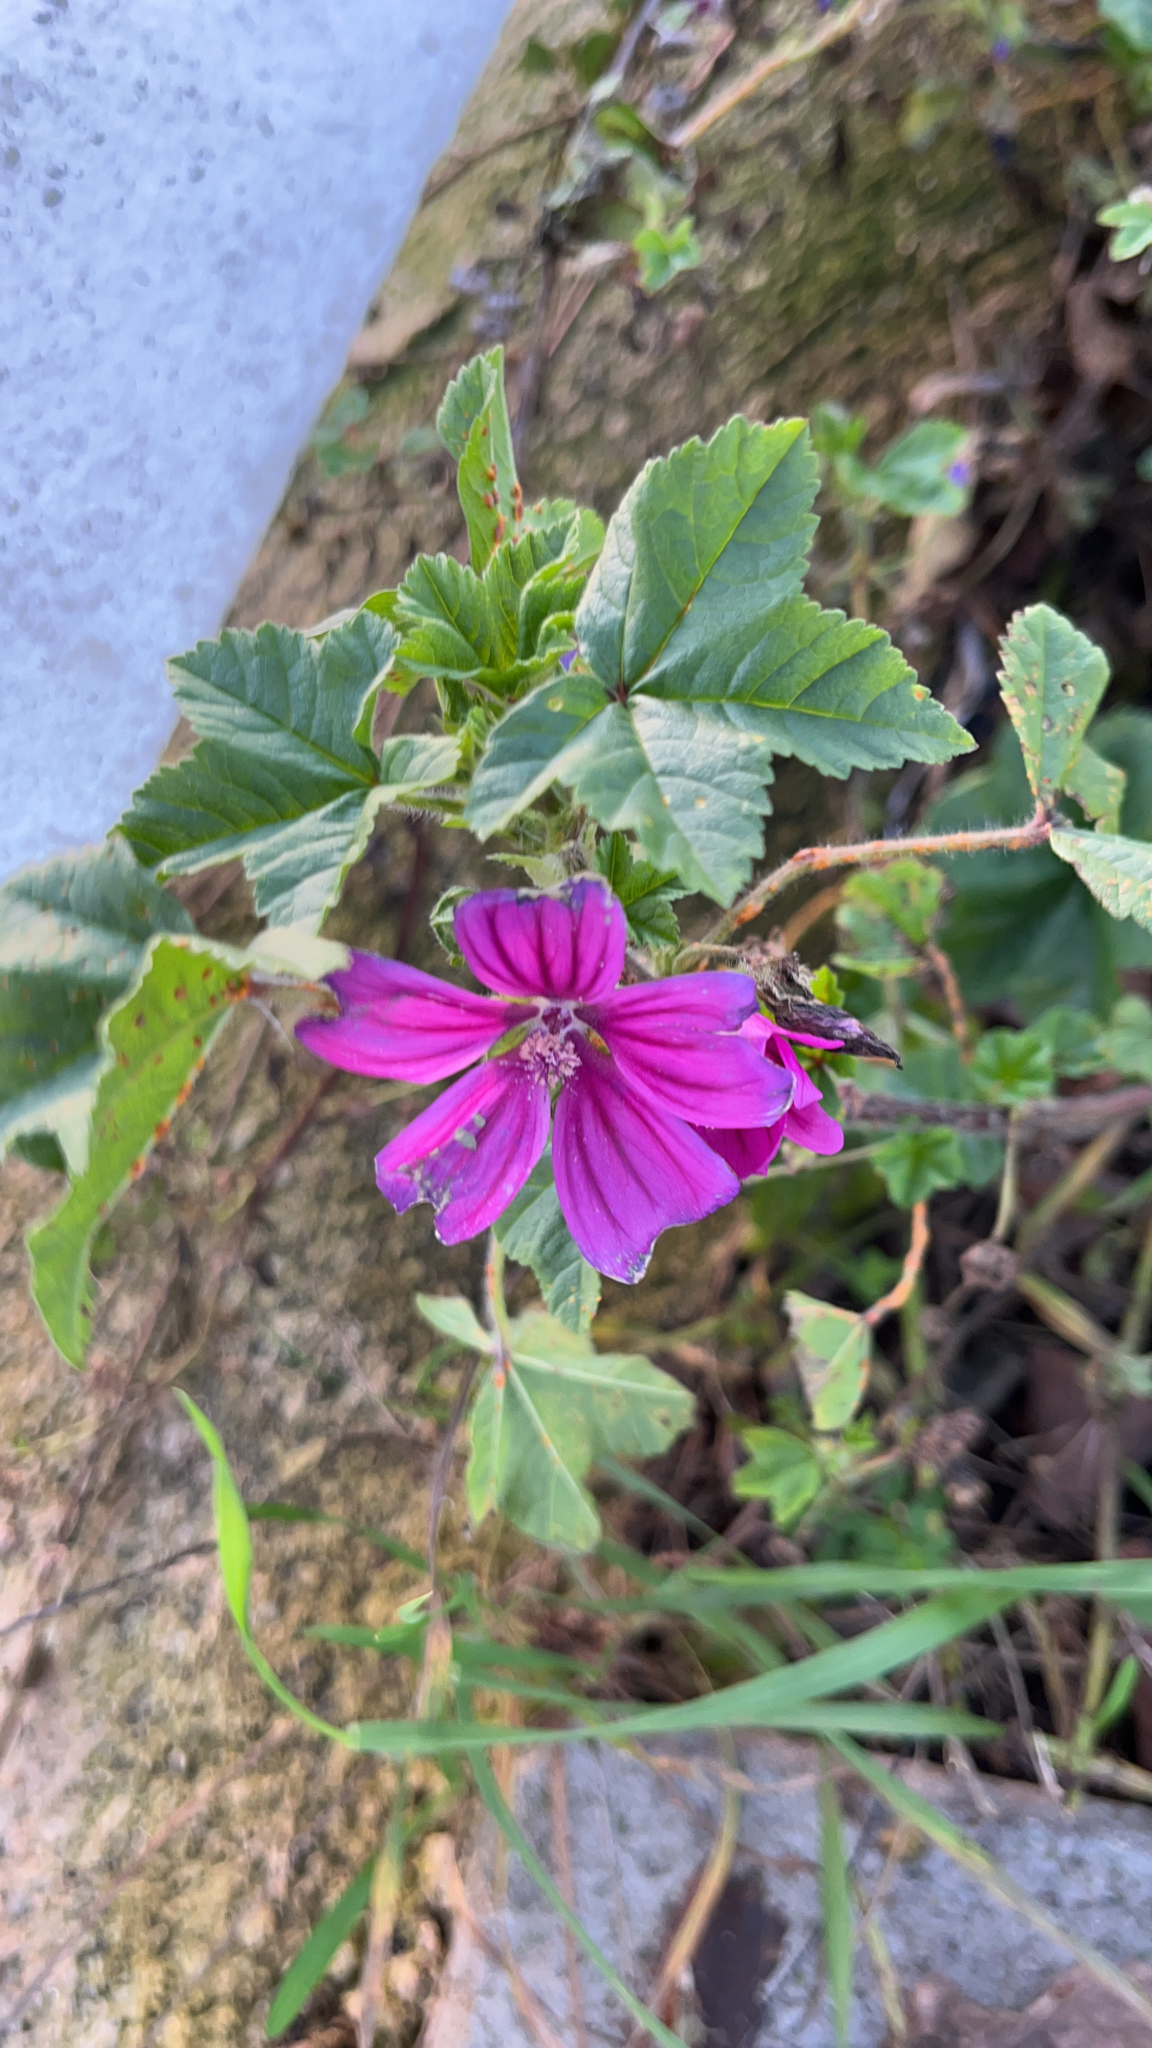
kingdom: Plantae
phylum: Tracheophyta
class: Magnoliopsida
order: Malvales
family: Malvaceae
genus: Malva
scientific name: Malva sylvestris
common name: Common mallow
